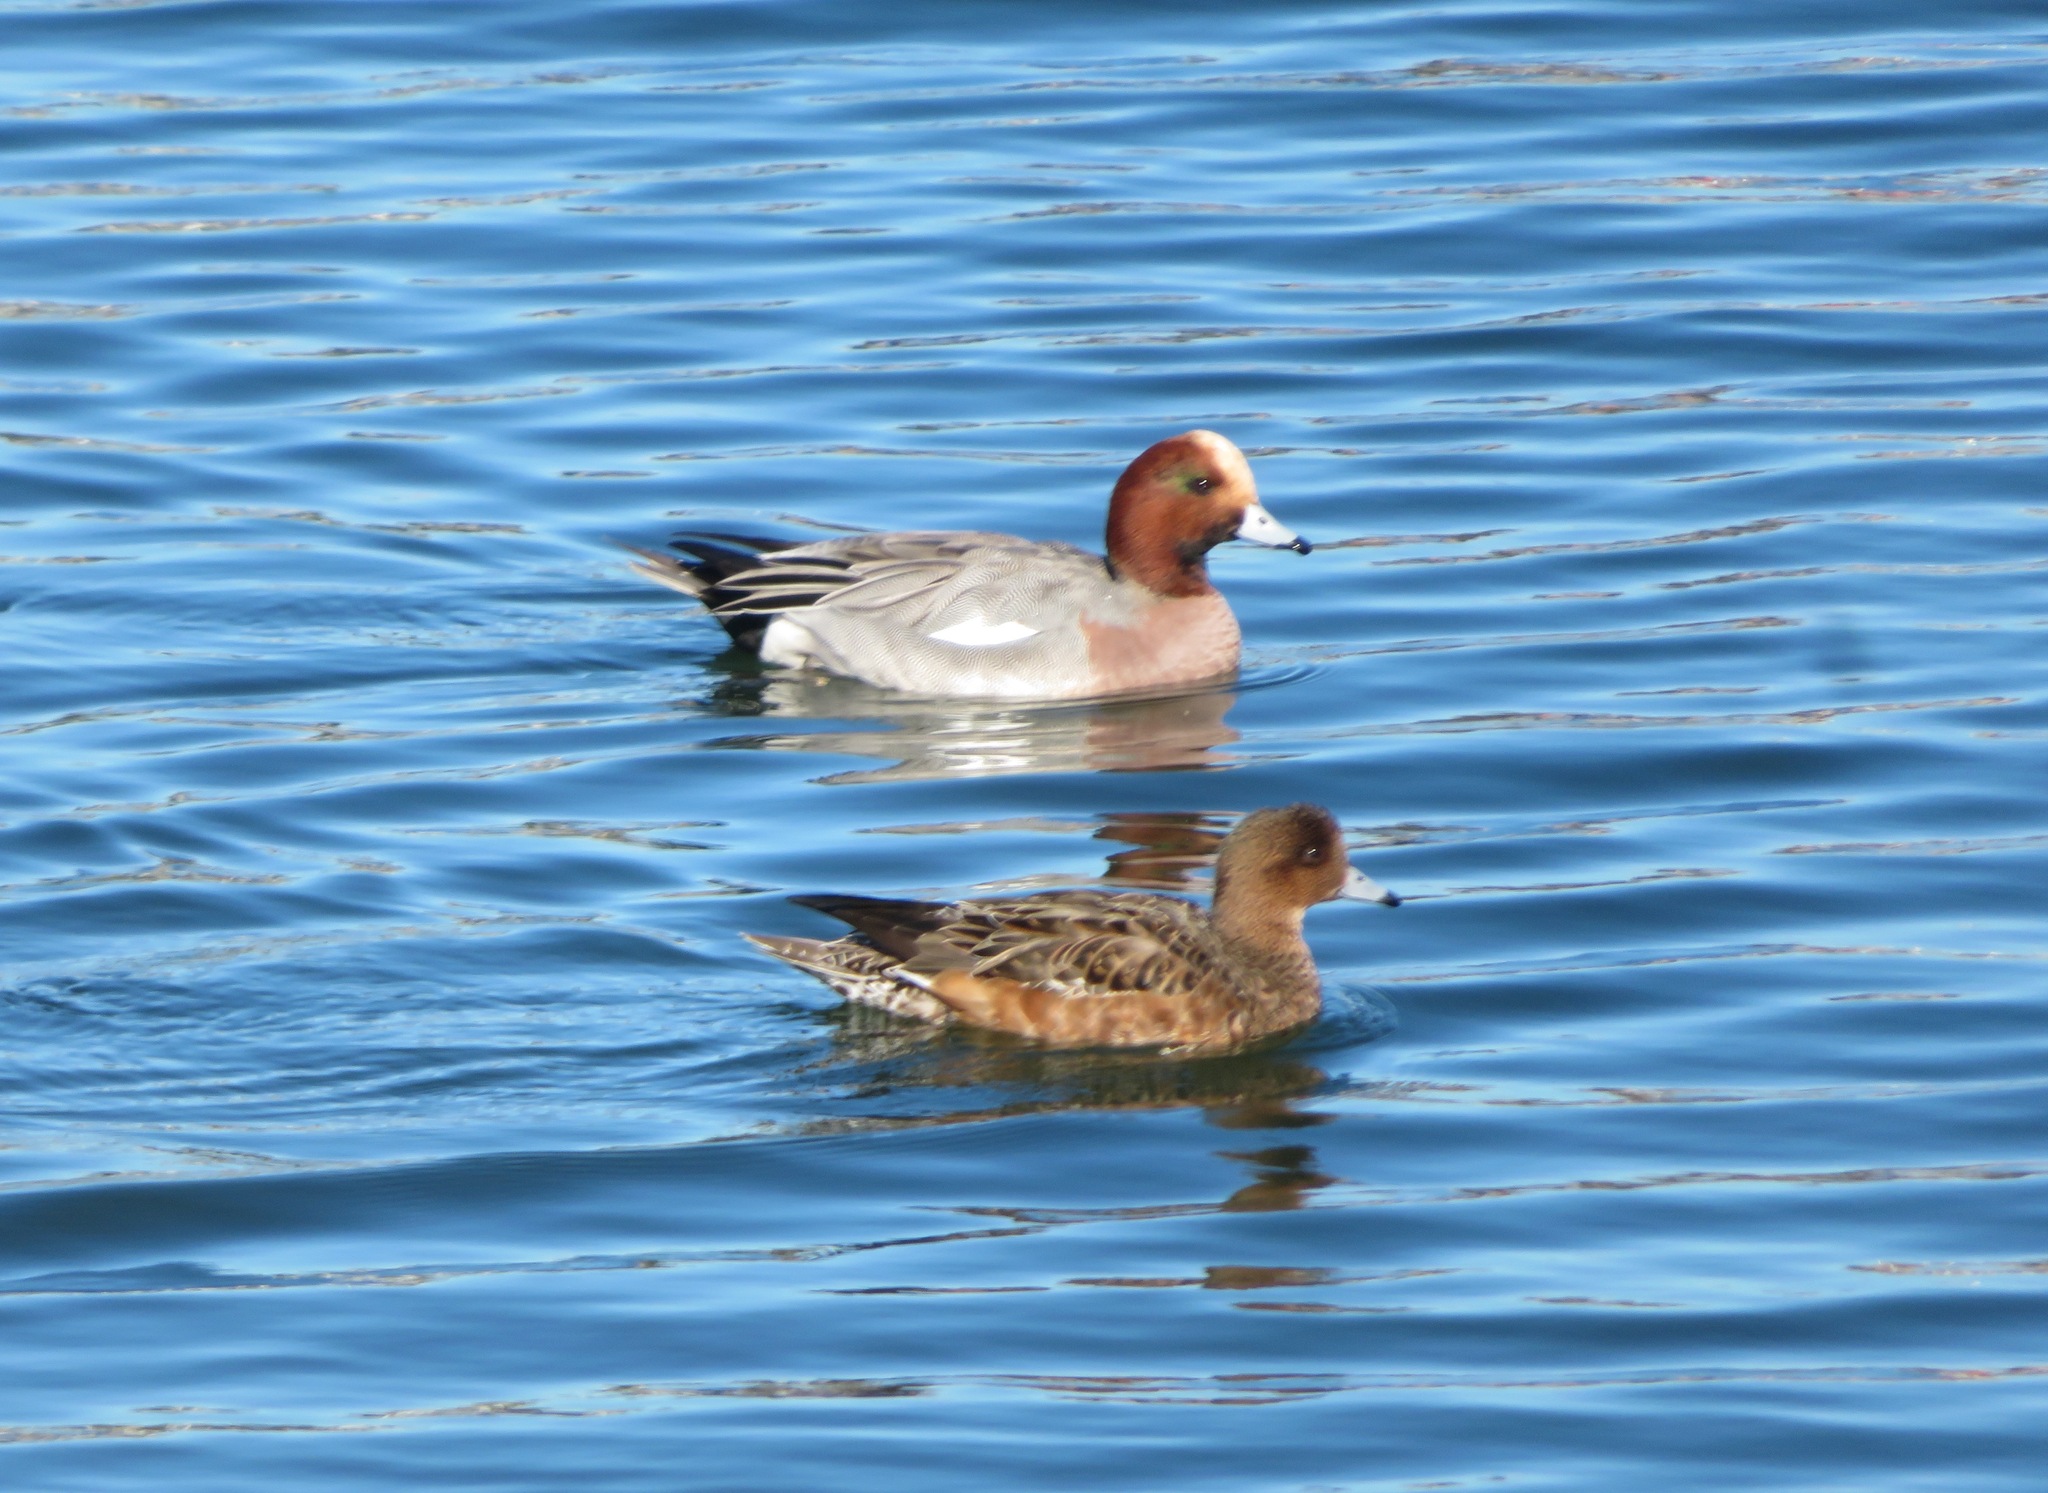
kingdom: Animalia
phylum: Chordata
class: Aves
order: Anseriformes
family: Anatidae
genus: Mareca
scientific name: Mareca penelope
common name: Eurasian wigeon
